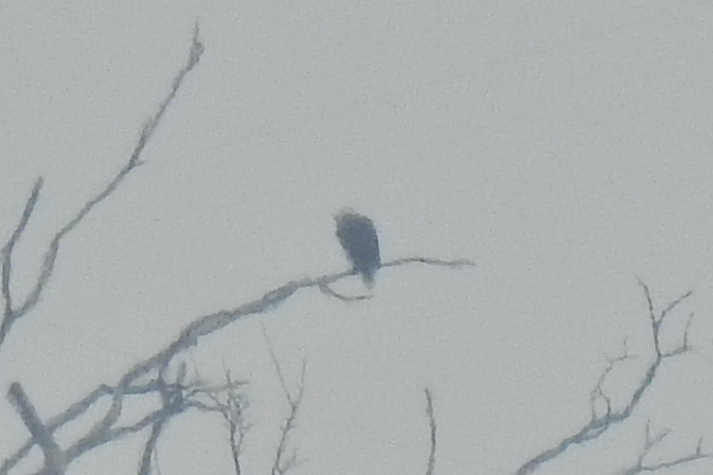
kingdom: Animalia
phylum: Chordata
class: Aves
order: Accipitriformes
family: Accipitridae
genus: Haliaeetus
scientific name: Haliaeetus leucocephalus
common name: Bald eagle
